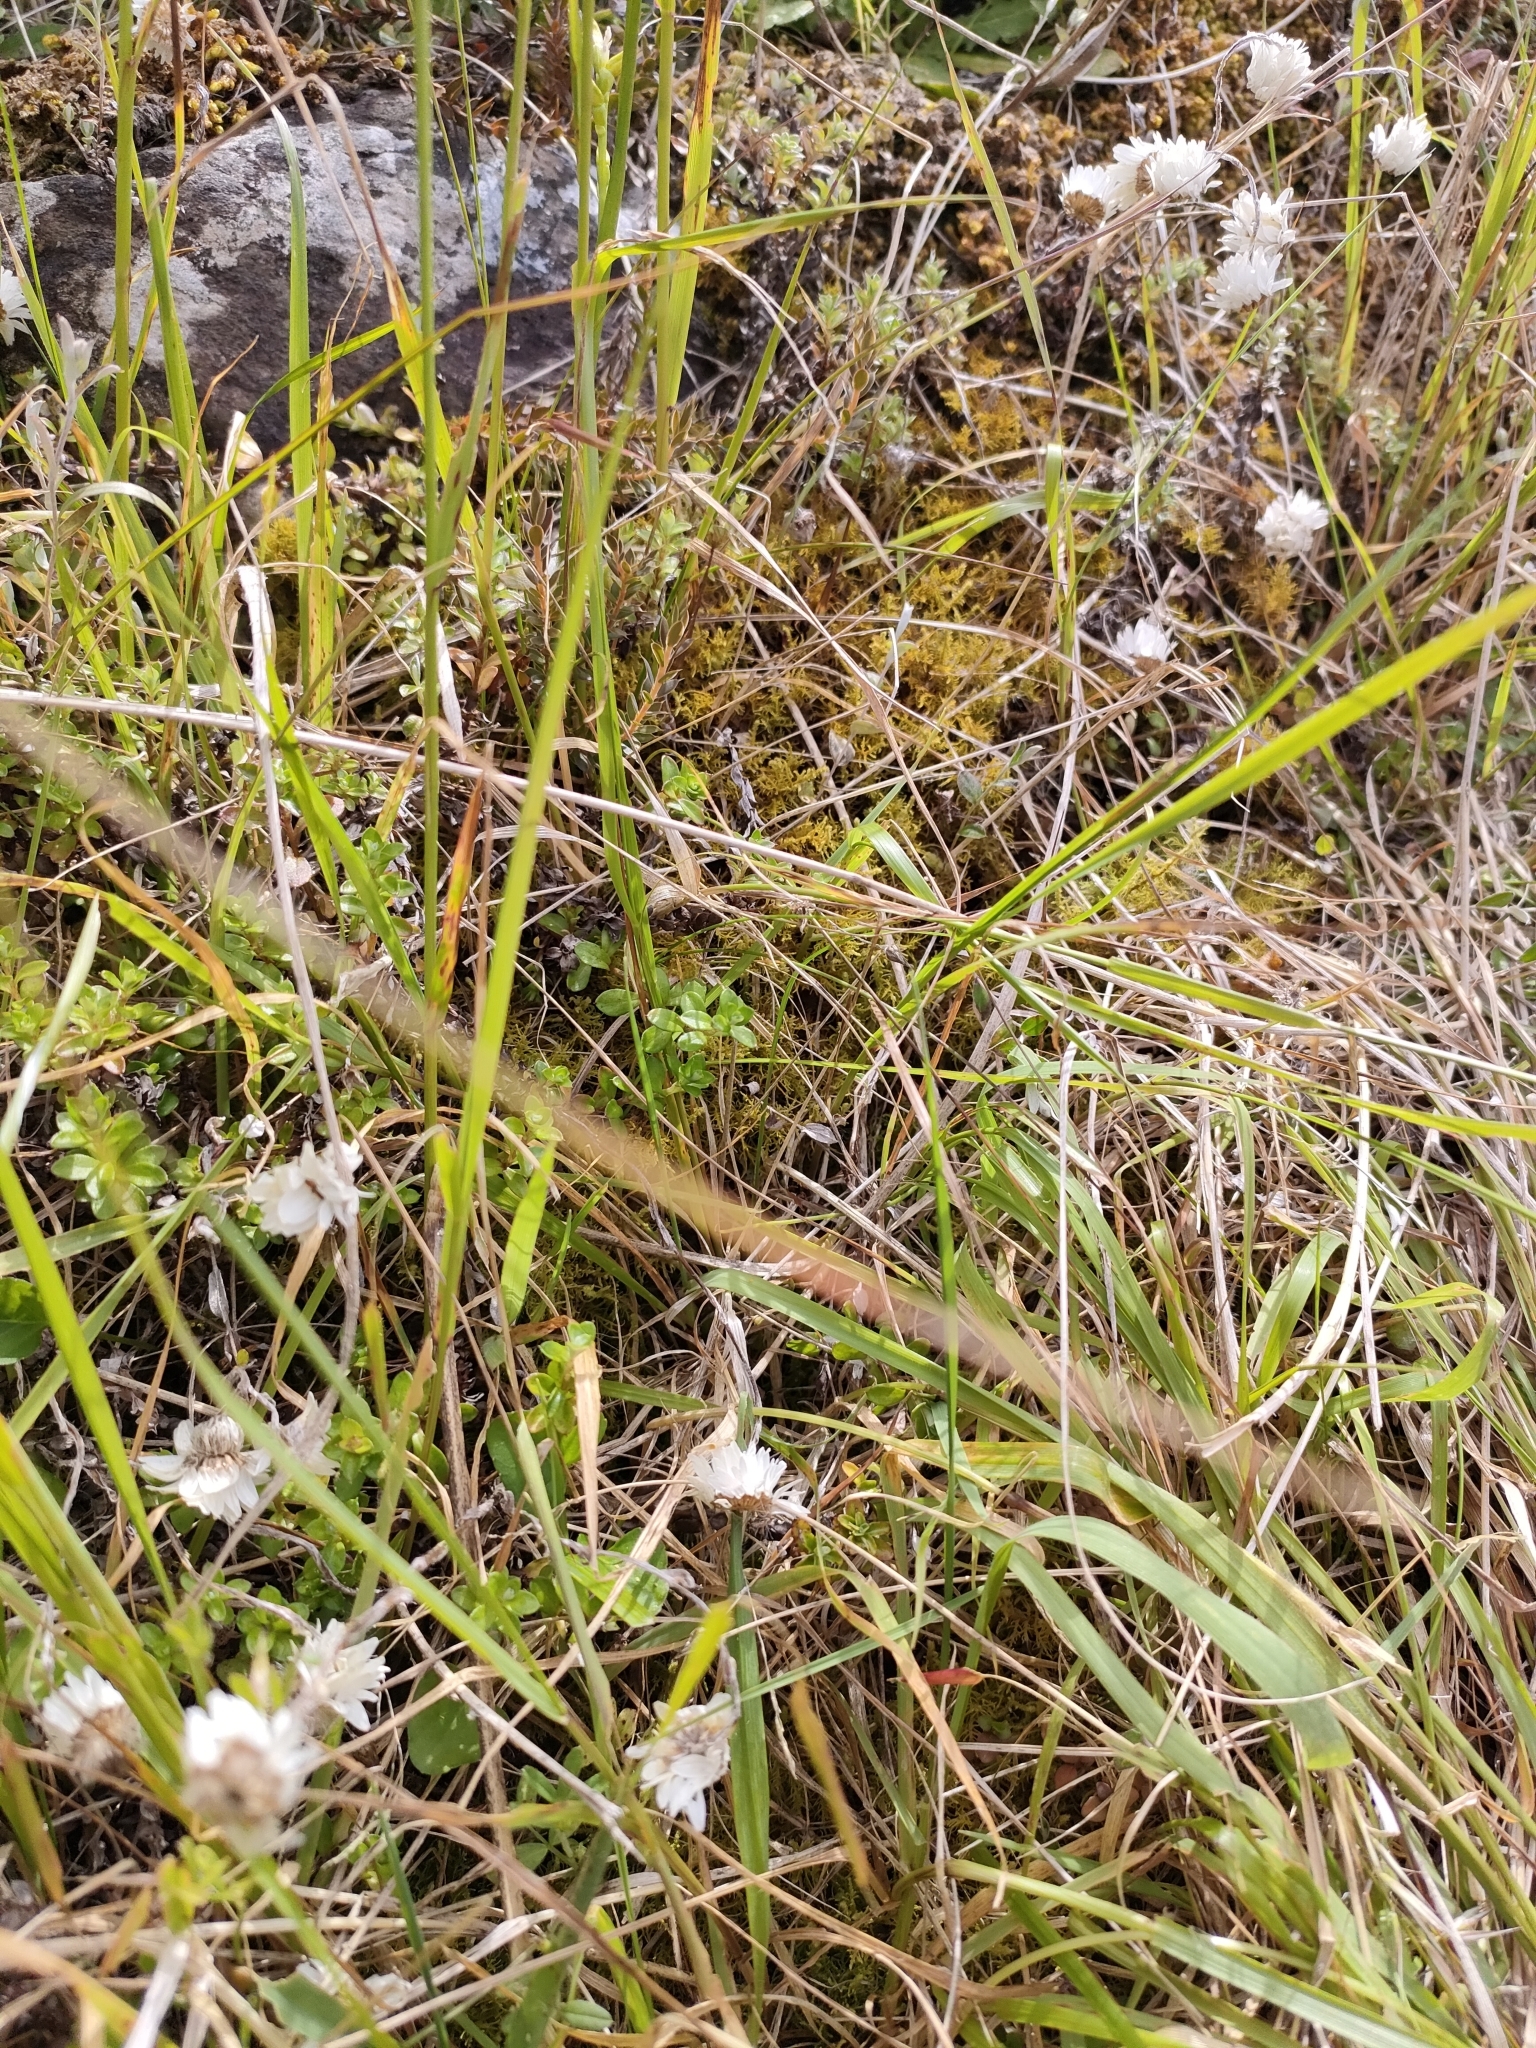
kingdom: Plantae
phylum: Tracheophyta
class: Magnoliopsida
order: Asterales
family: Asteraceae
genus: Anaphalioides
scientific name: Anaphalioides bellidioides
